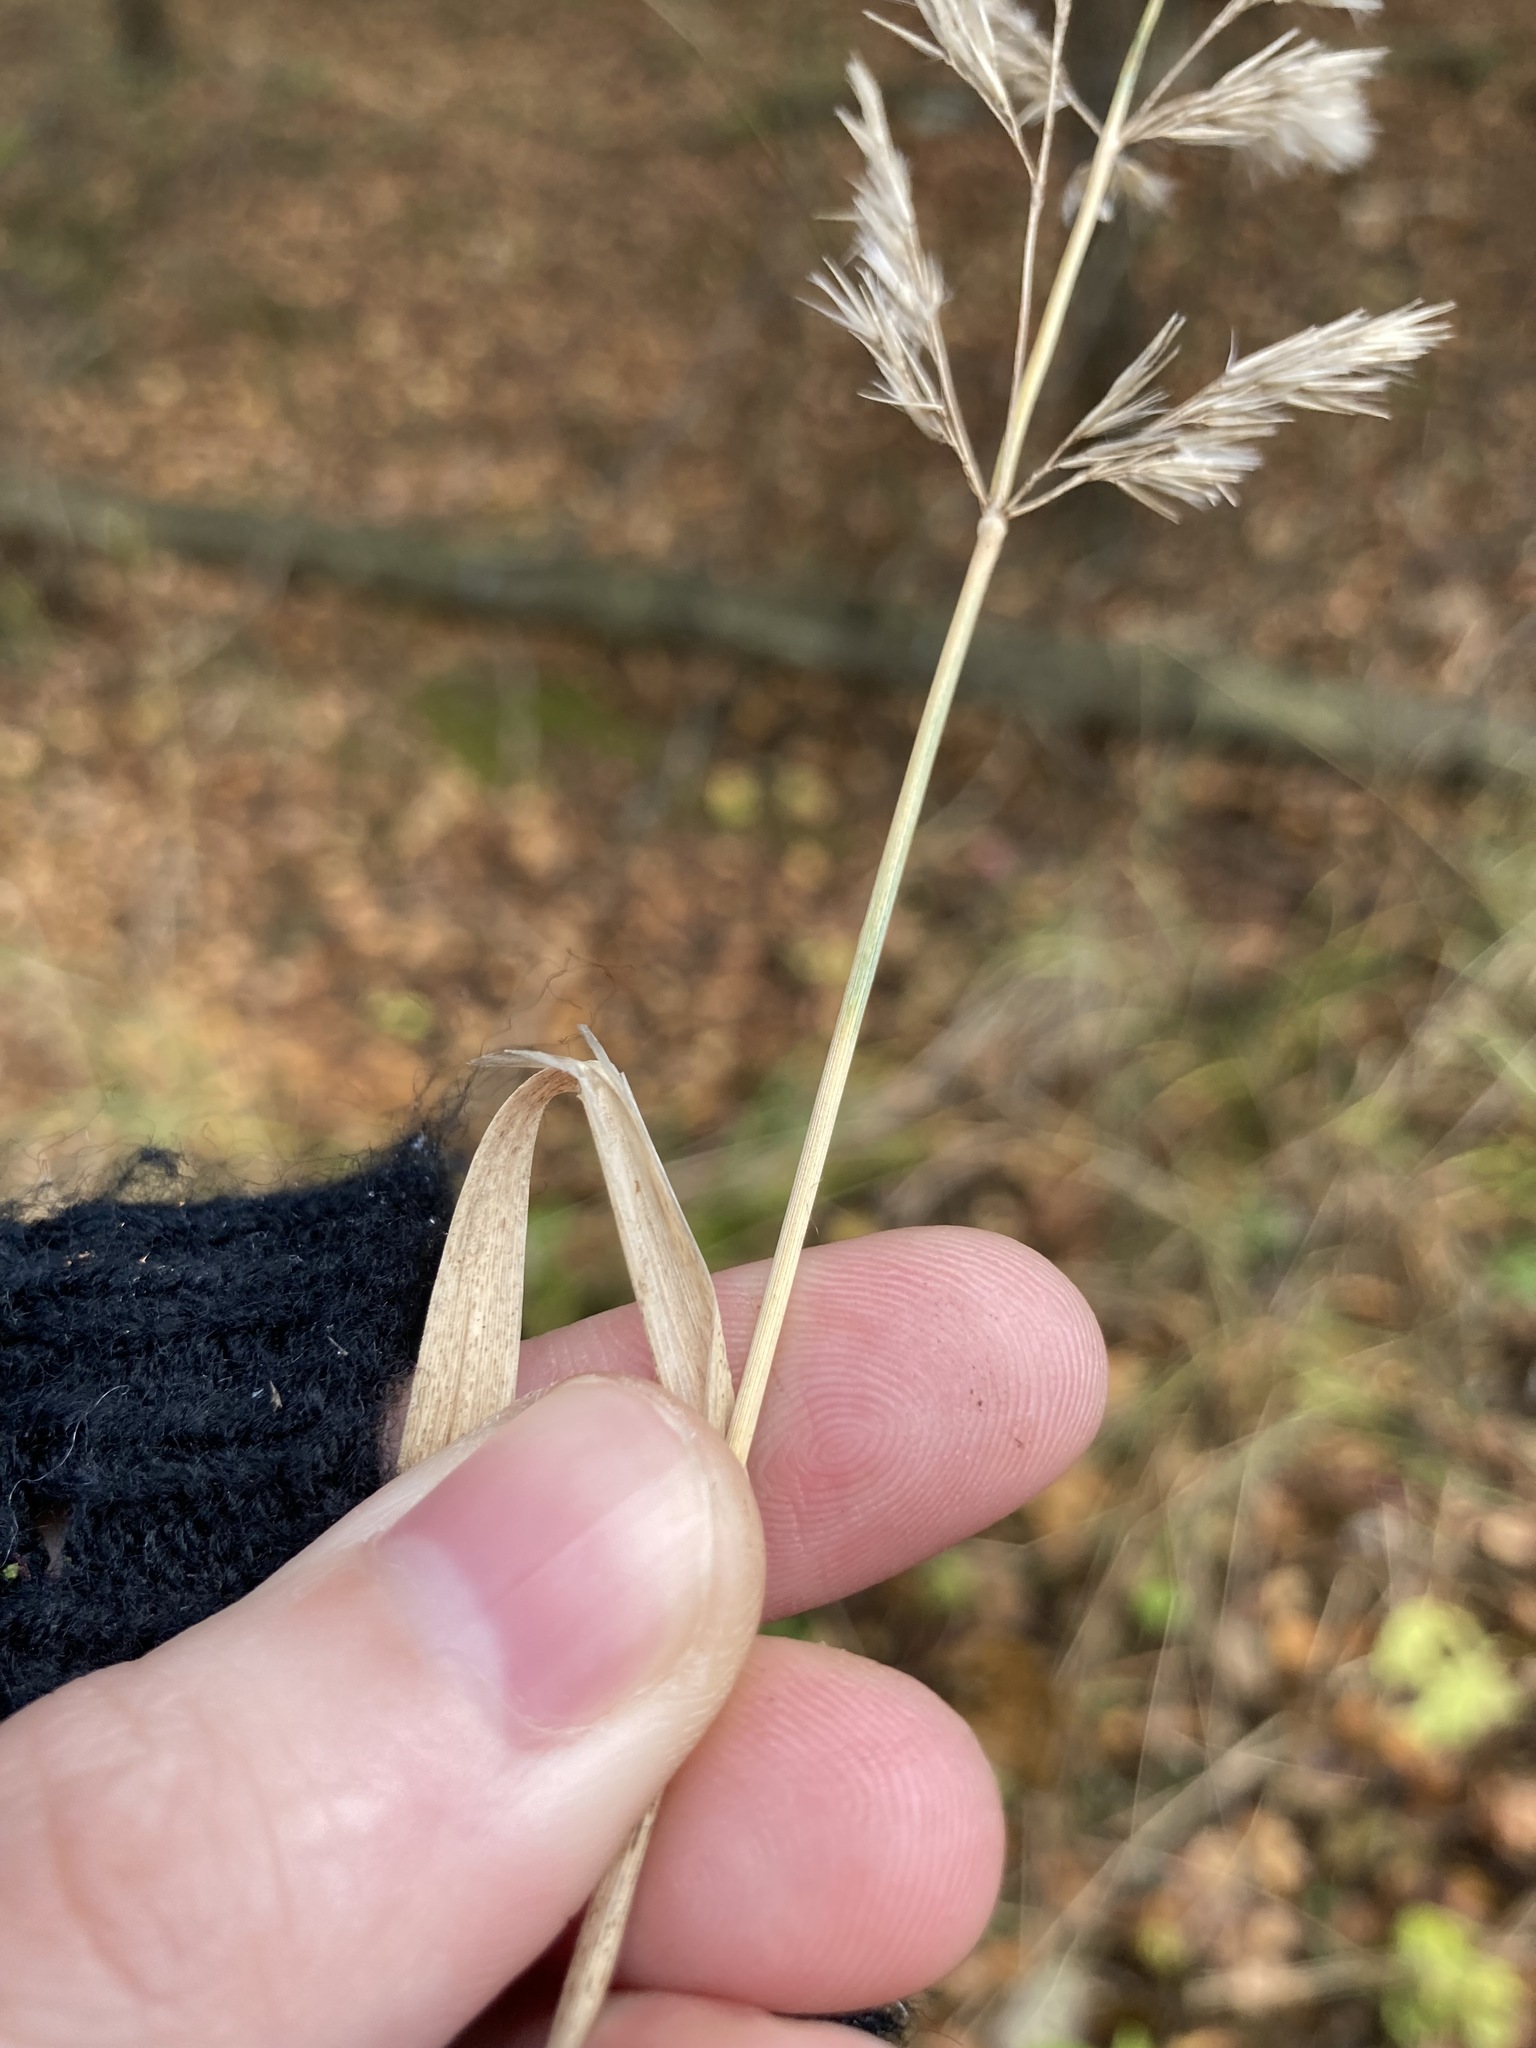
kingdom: Plantae
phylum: Tracheophyta
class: Liliopsida
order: Poales
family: Poaceae
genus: Calamagrostis
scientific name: Calamagrostis epigejos
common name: Wood small-reed
